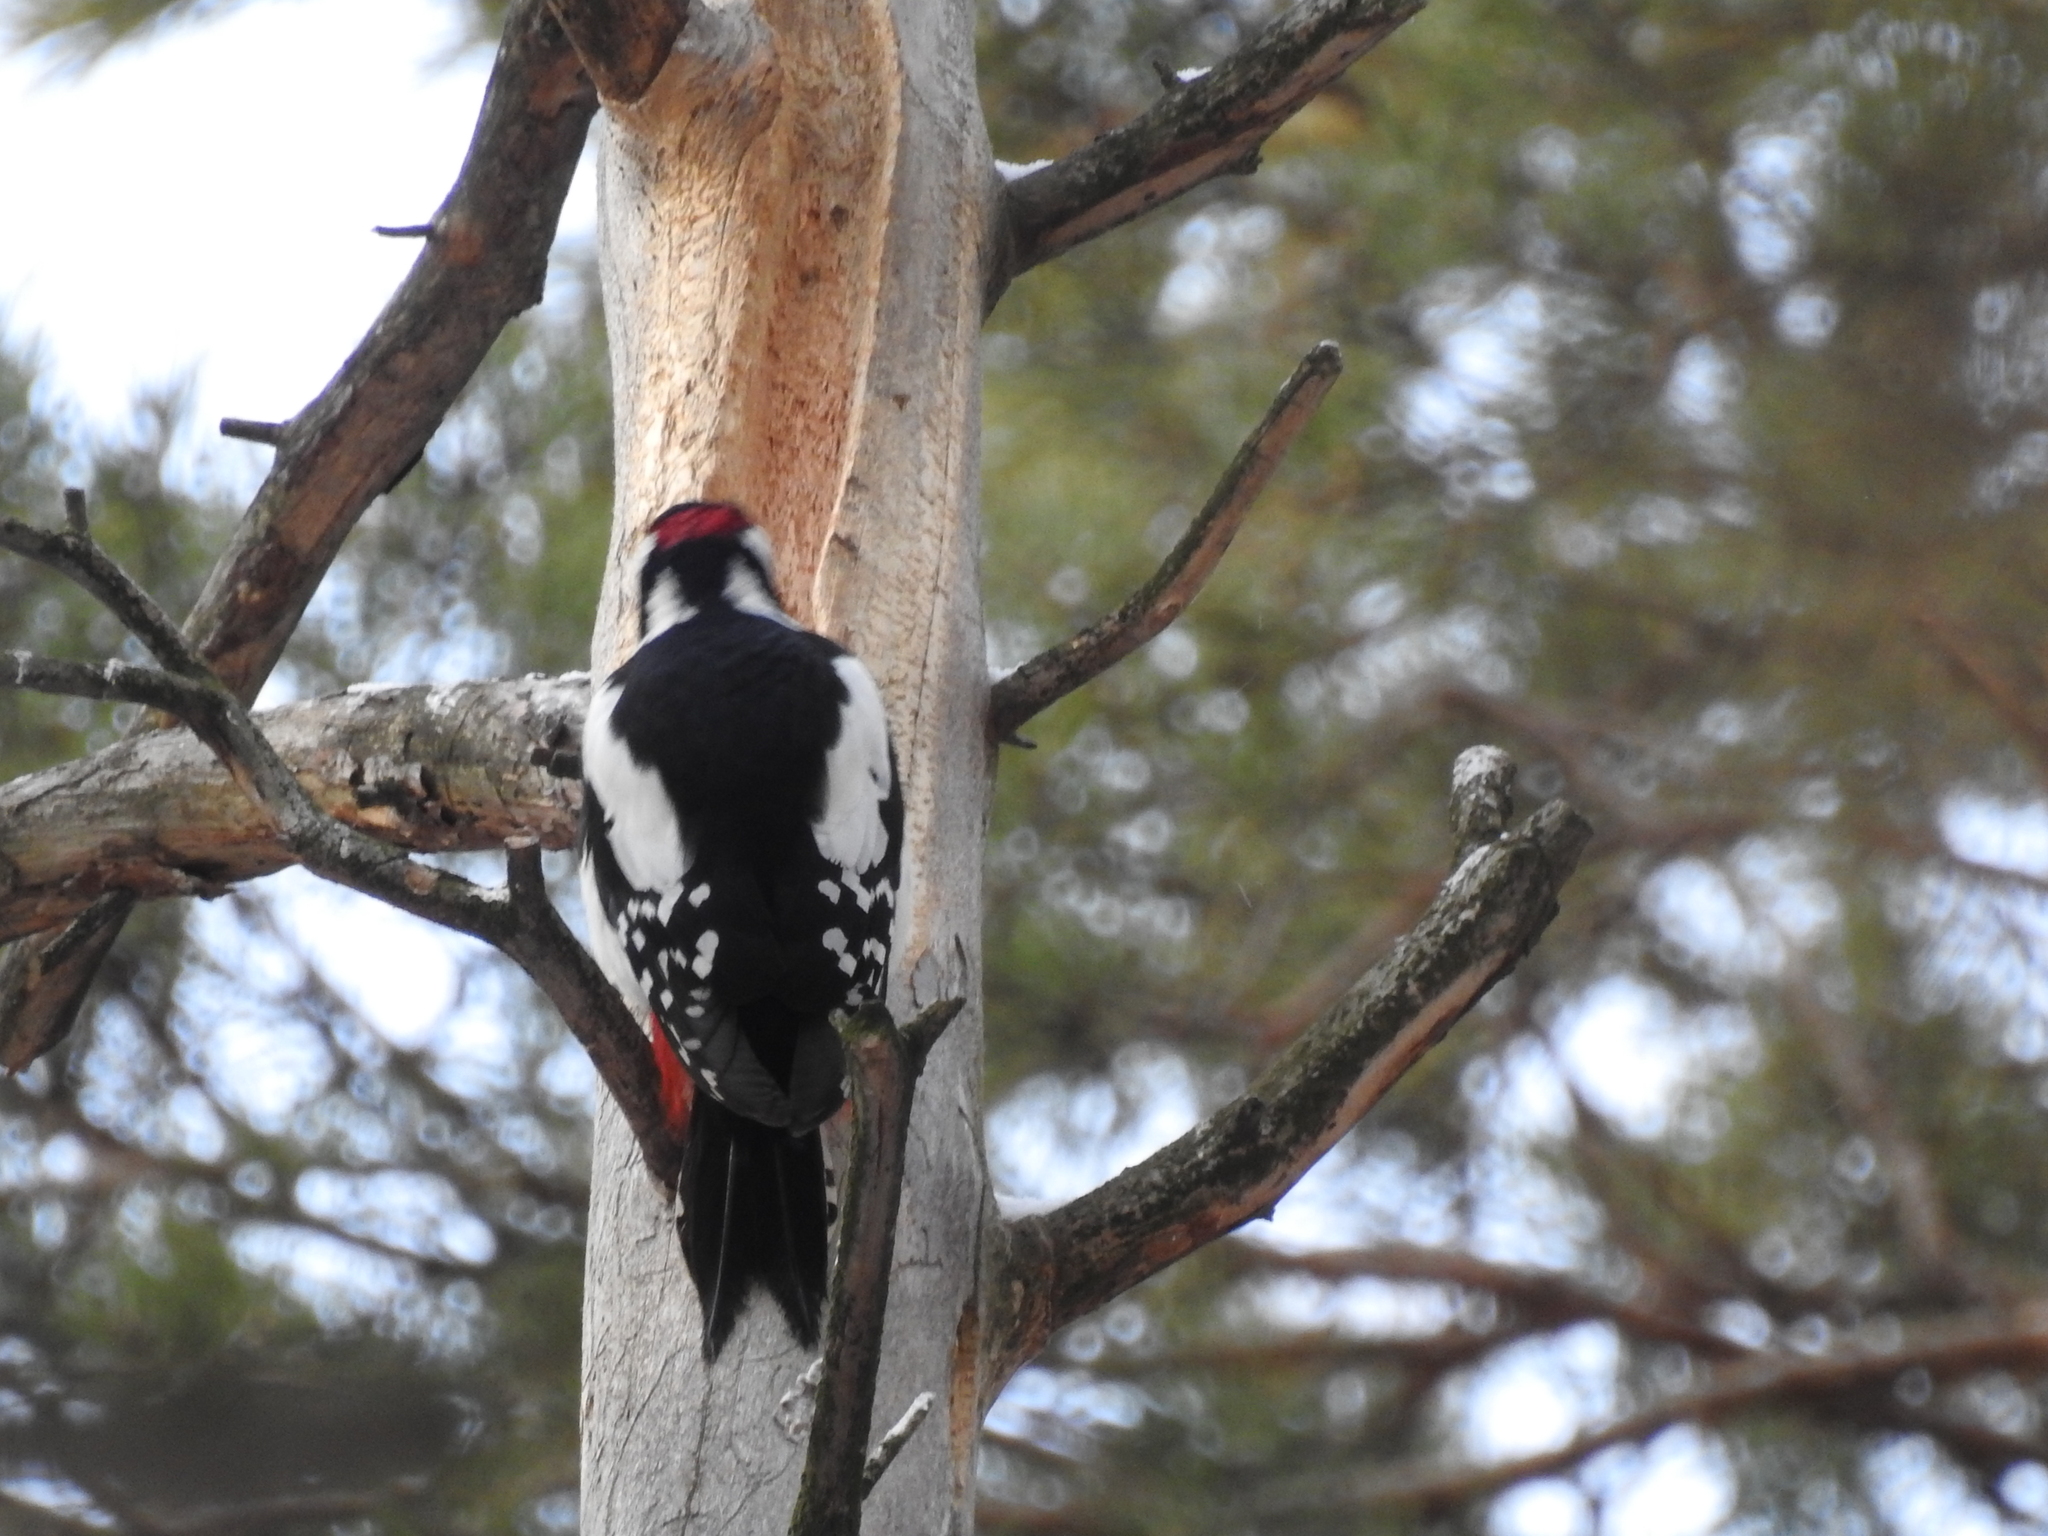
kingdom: Animalia
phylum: Chordata
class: Aves
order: Piciformes
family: Picidae
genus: Dendrocopos
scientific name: Dendrocopos major
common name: Great spotted woodpecker
